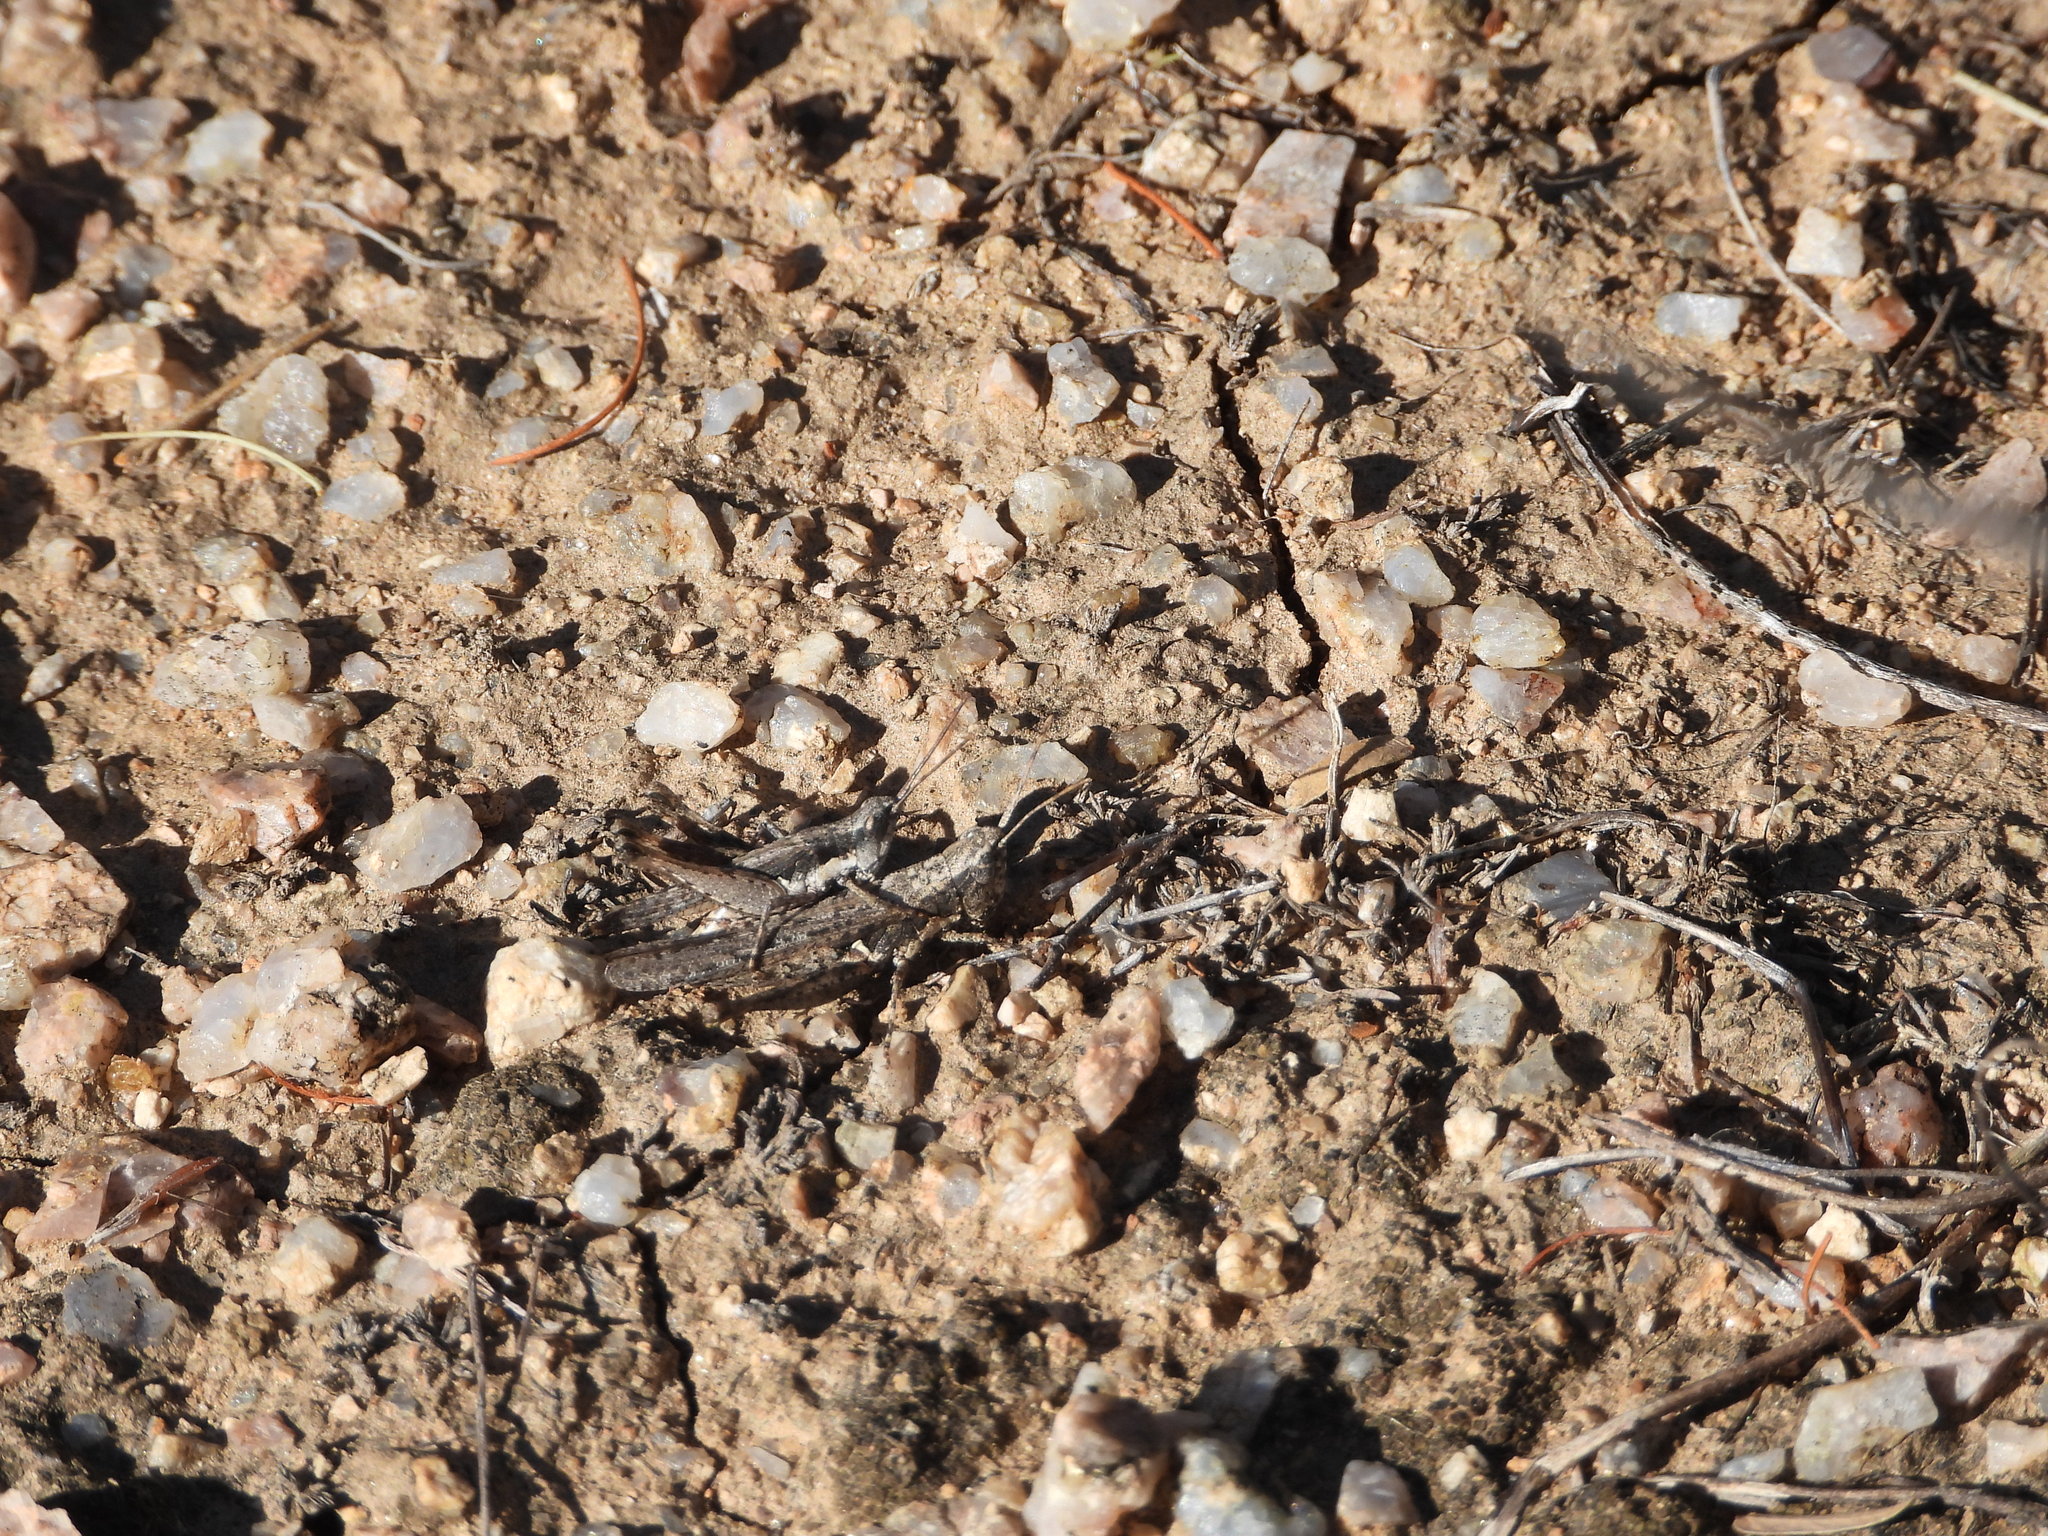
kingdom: Animalia
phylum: Arthropoda
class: Insecta
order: Orthoptera
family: Acrididae
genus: Horesidotes
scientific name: Horesidotes cinereus
